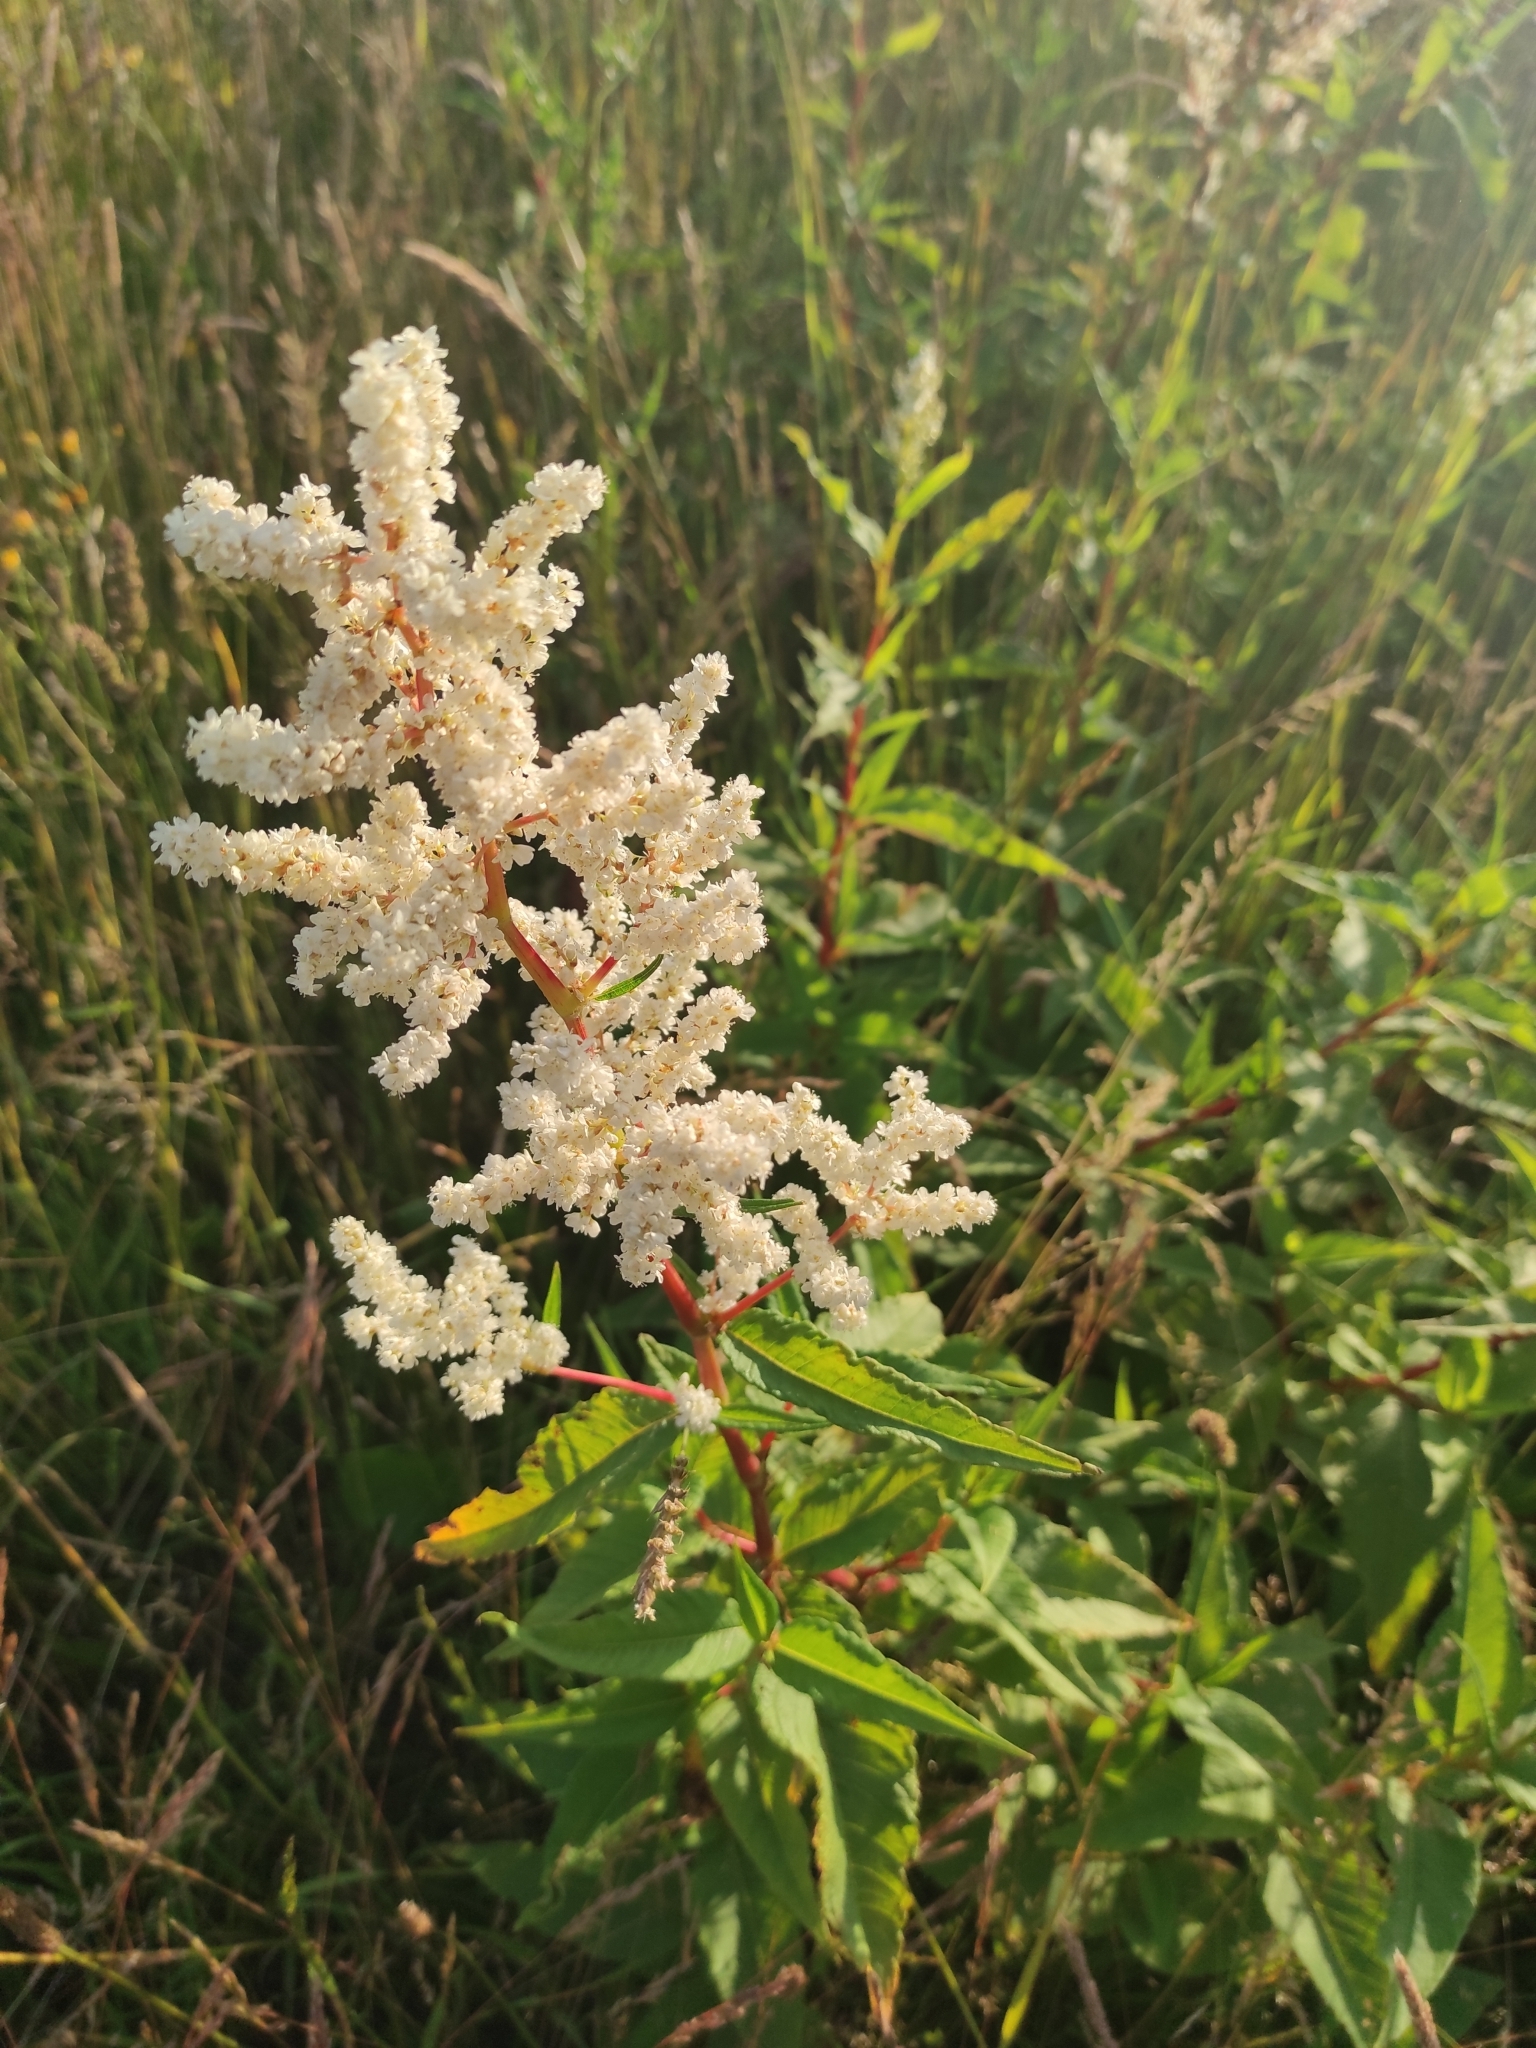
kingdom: Plantae
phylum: Tracheophyta
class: Magnoliopsida
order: Caryophyllales
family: Polygonaceae
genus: Koenigia
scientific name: Koenigia polystachya
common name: Himalayan knotweed
